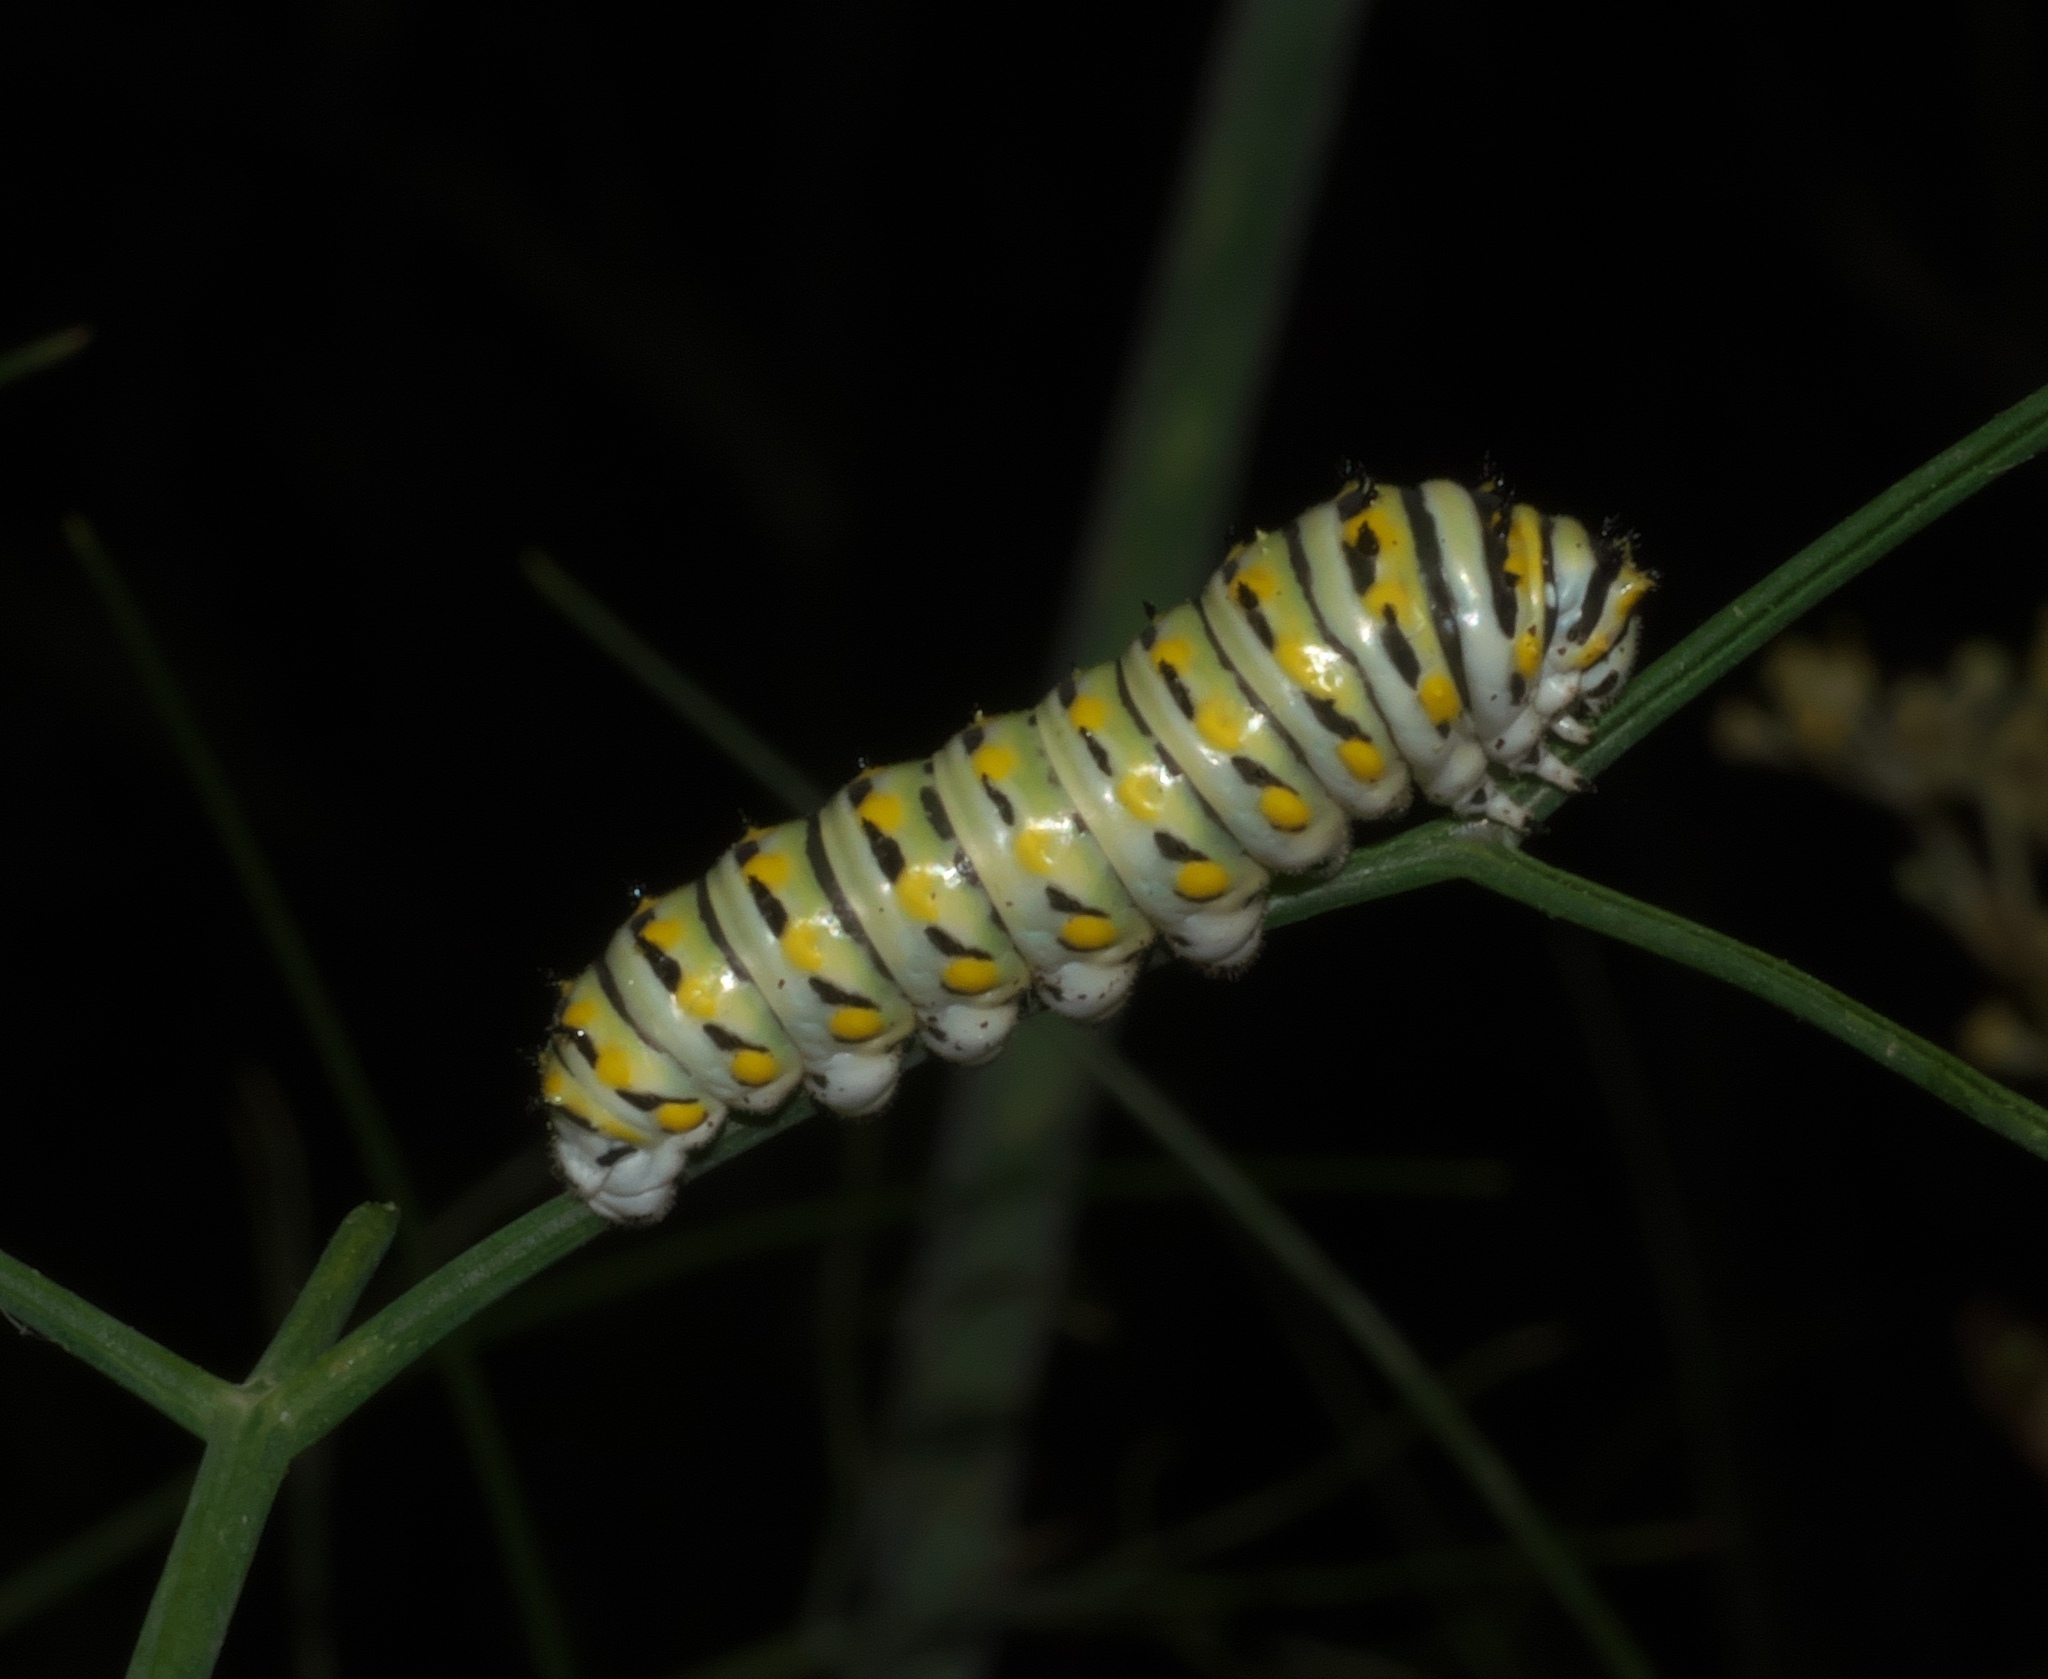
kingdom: Animalia
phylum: Arthropoda
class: Insecta
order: Lepidoptera
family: Papilionidae
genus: Papilio
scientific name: Papilio polyxenes
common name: Black swallowtail
